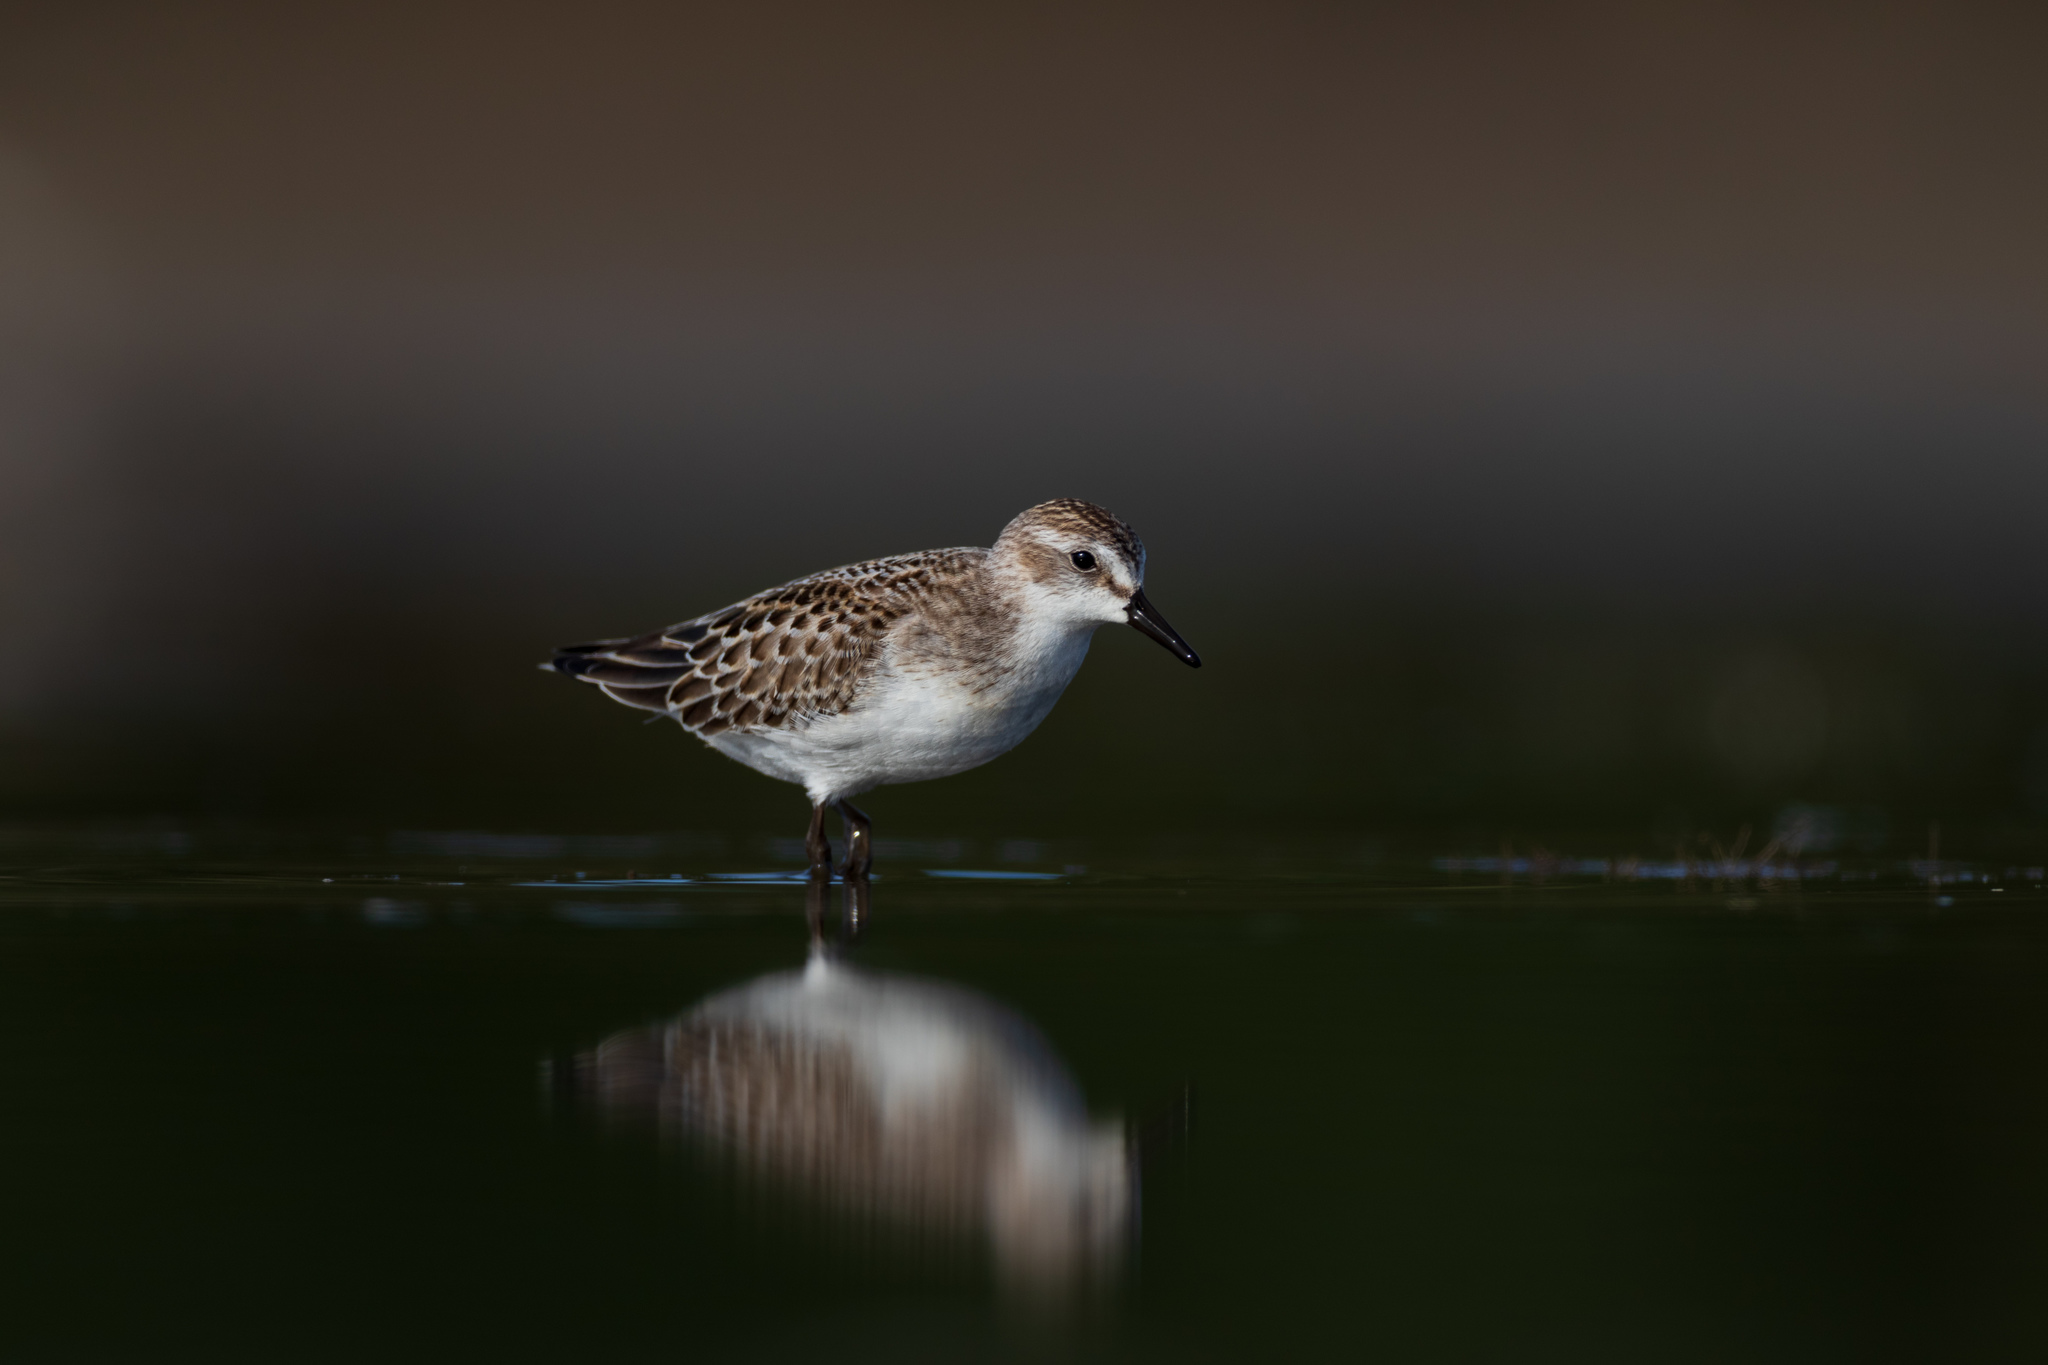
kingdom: Animalia
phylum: Chordata
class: Aves
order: Charadriiformes
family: Scolopacidae
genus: Calidris
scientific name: Calidris pusilla
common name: Semipalmated sandpiper
